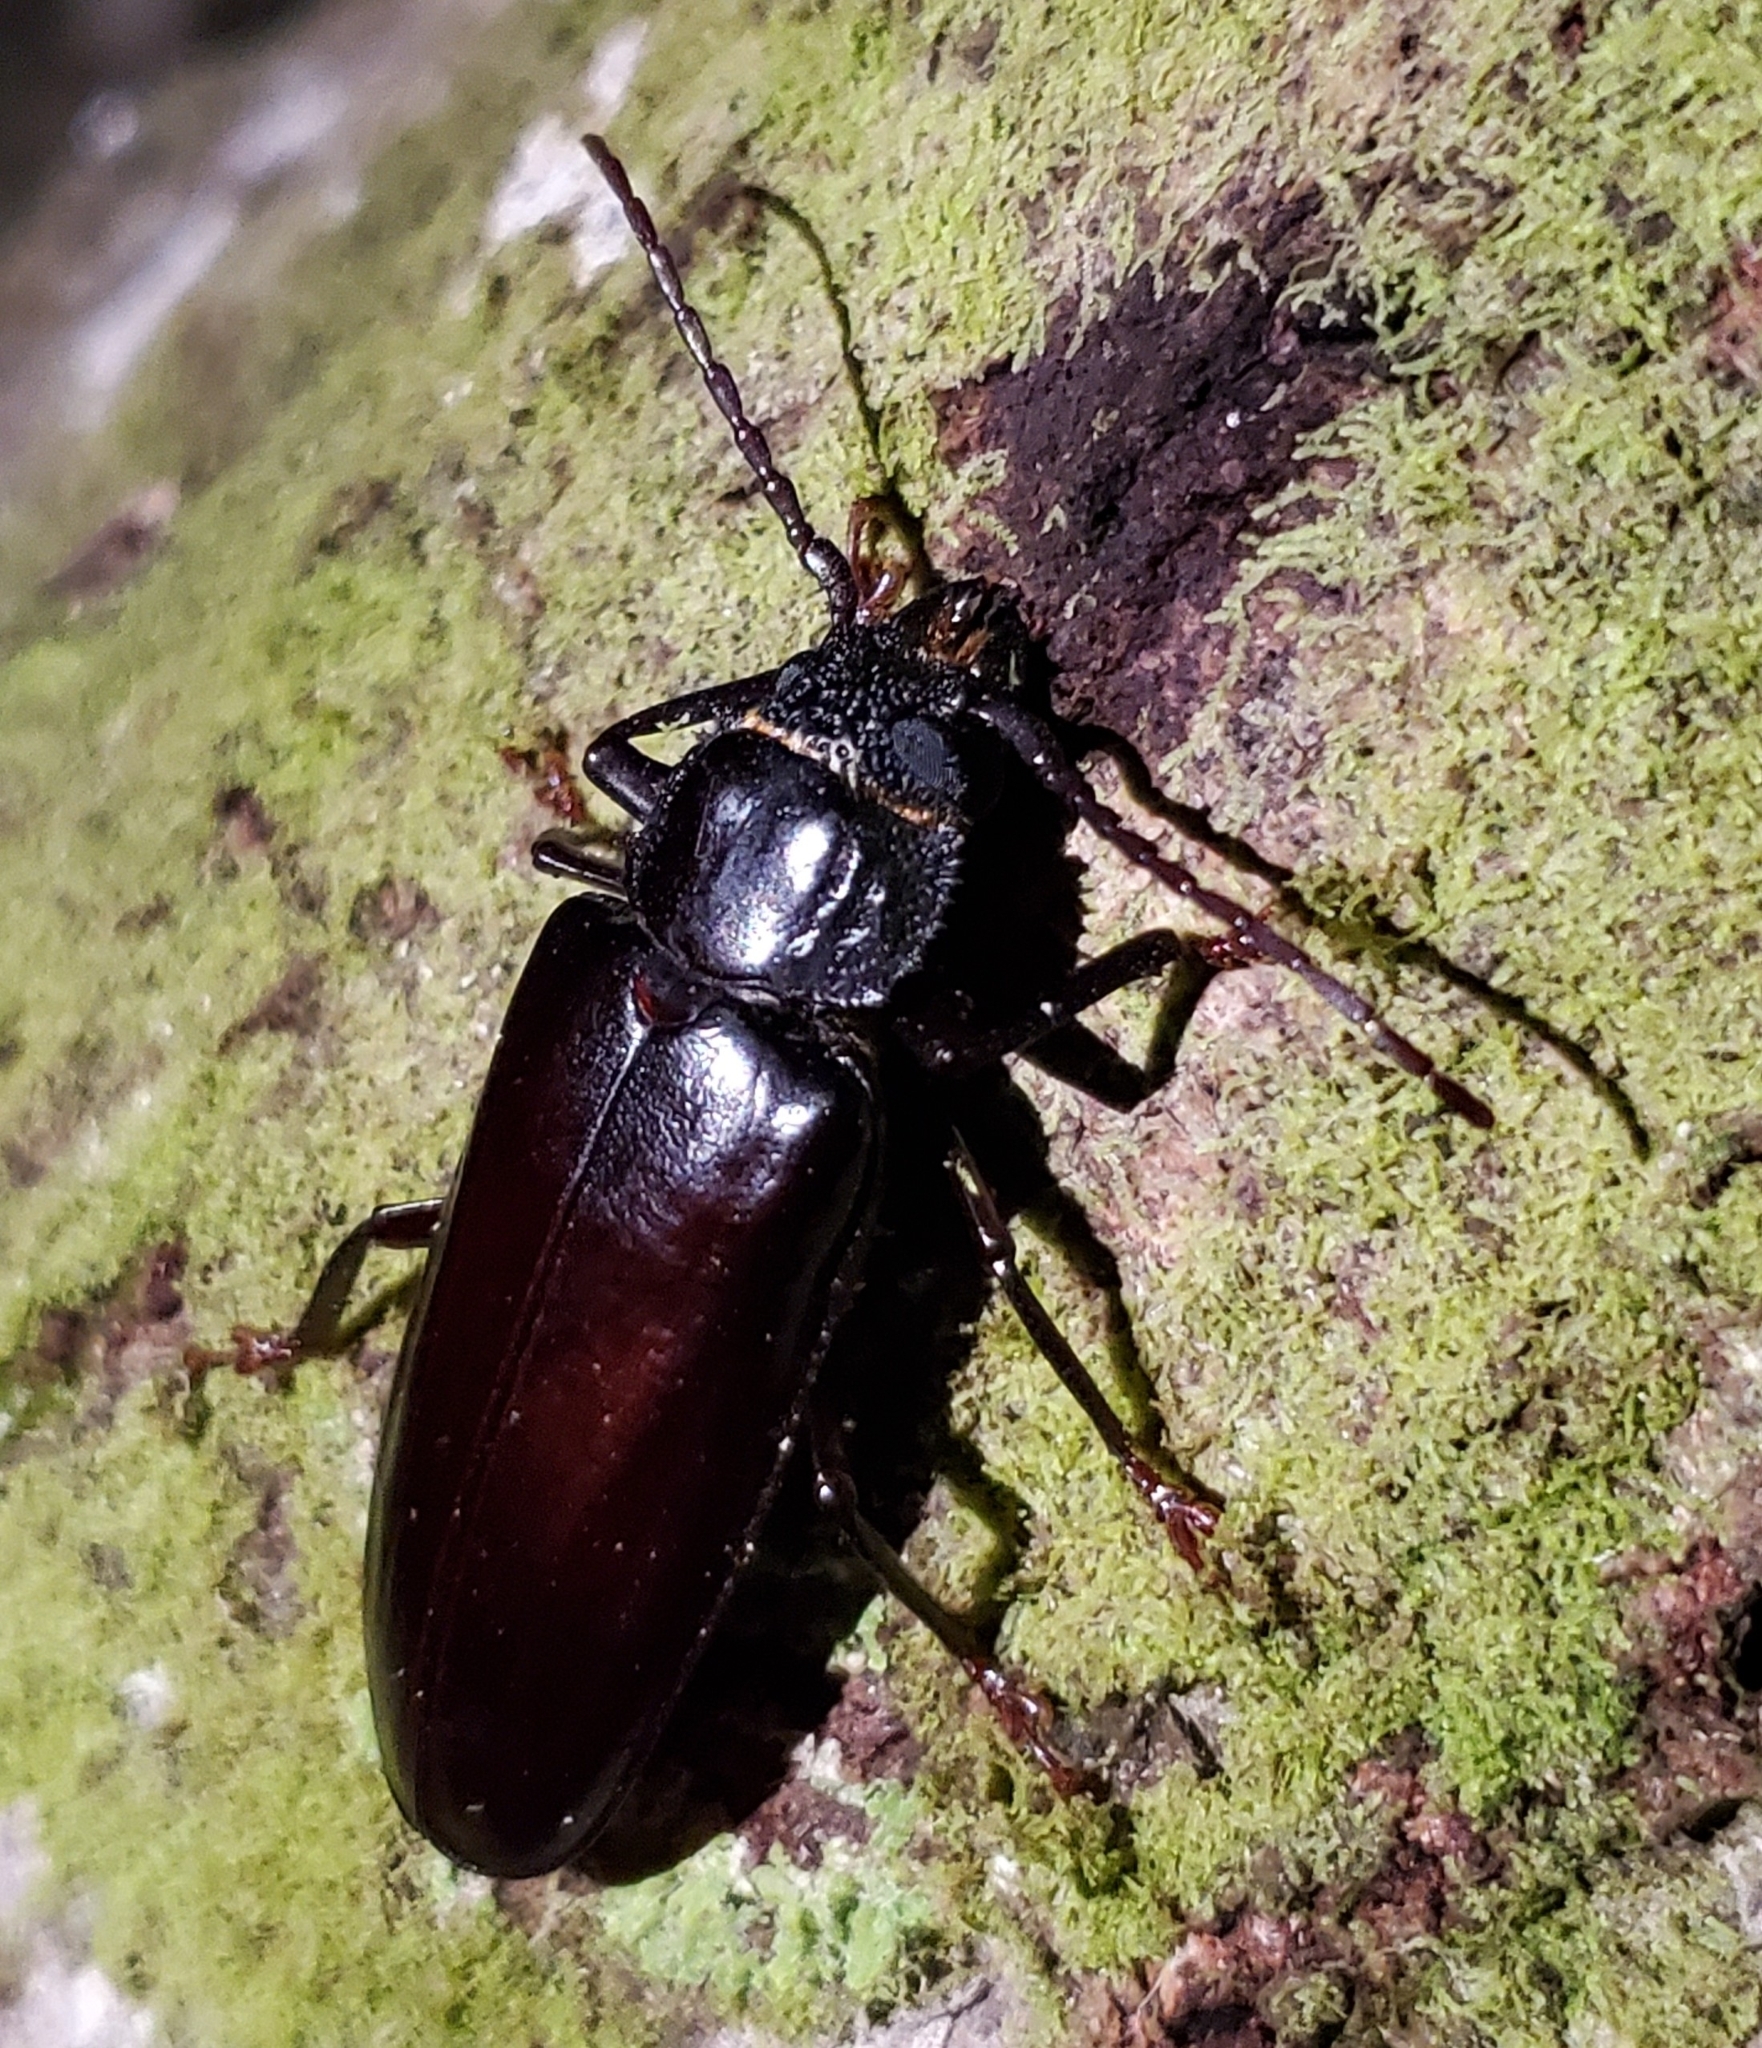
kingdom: Animalia
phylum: Arthropoda
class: Insecta
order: Coleoptera
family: Cerambycidae
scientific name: Cerambycidae
